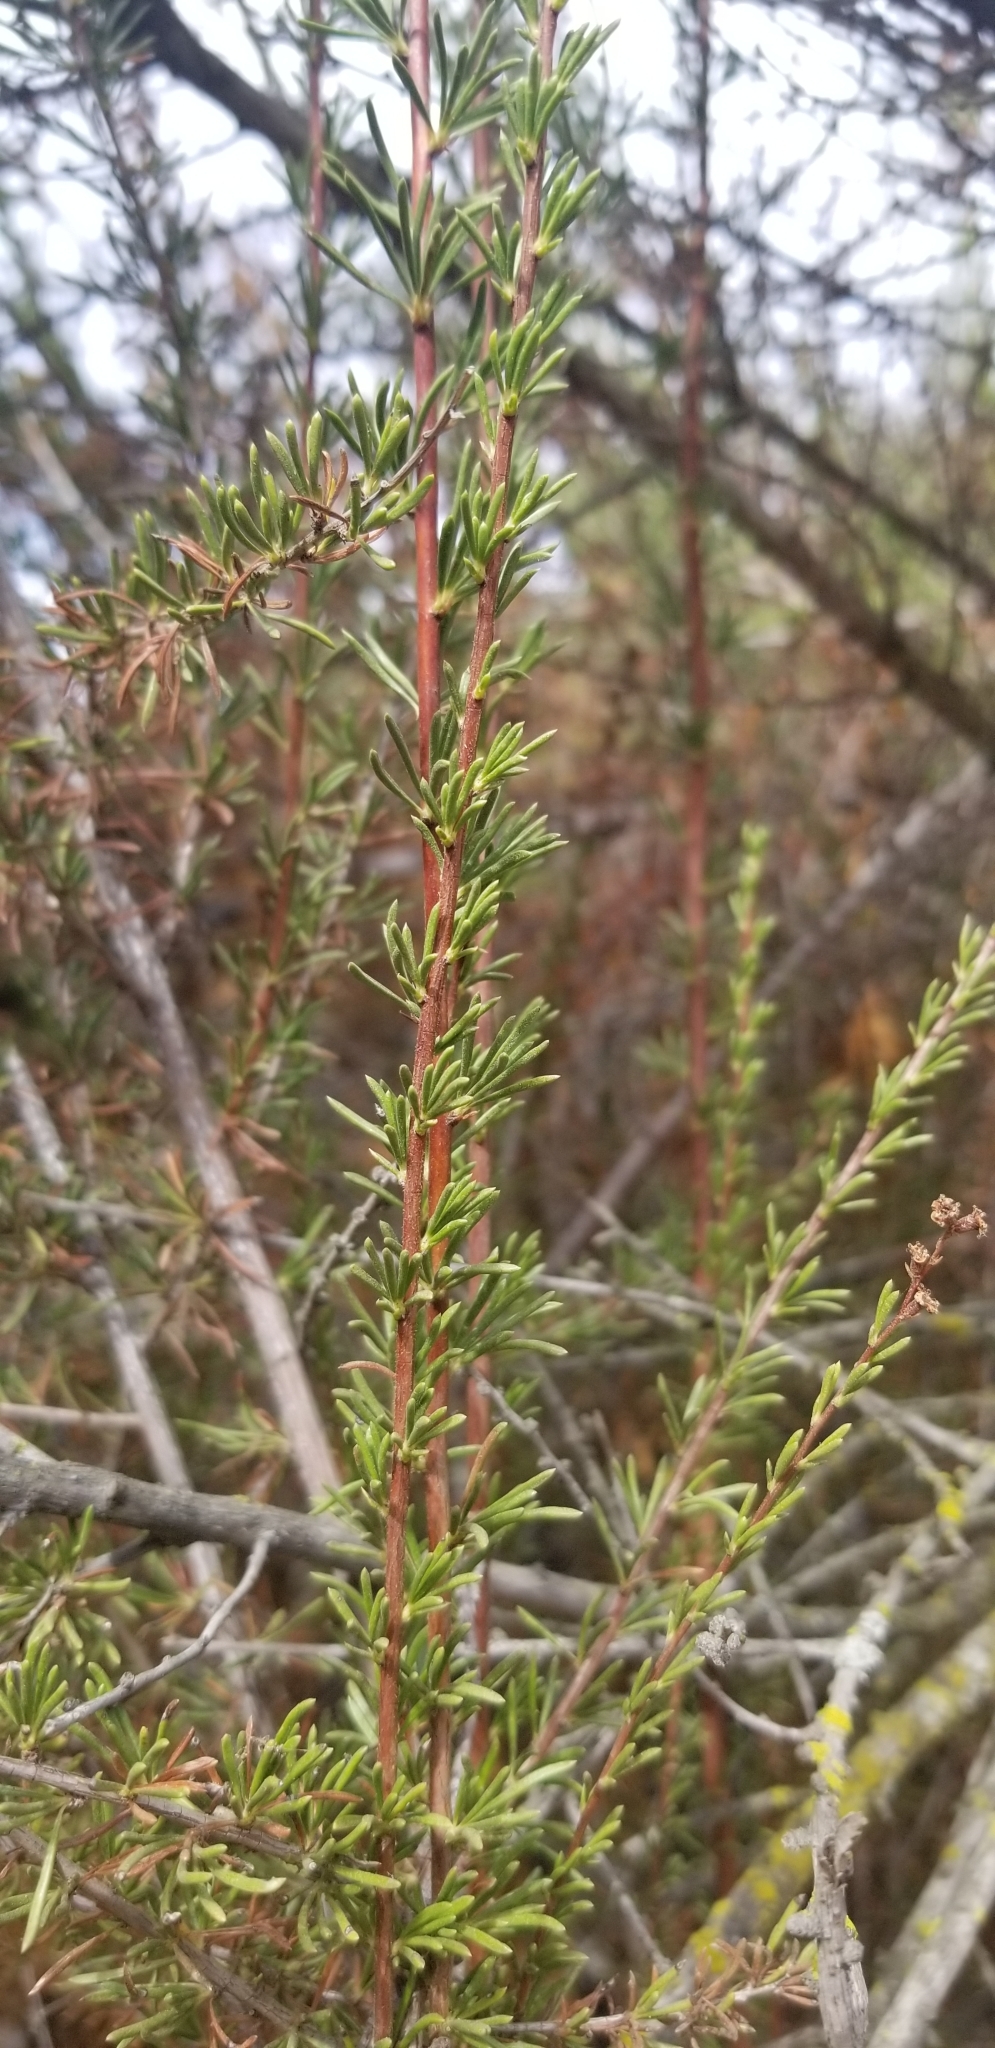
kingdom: Plantae
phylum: Tracheophyta
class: Magnoliopsida
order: Rosales
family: Rosaceae
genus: Adenostoma
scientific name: Adenostoma fasciculatum
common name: Chamise
